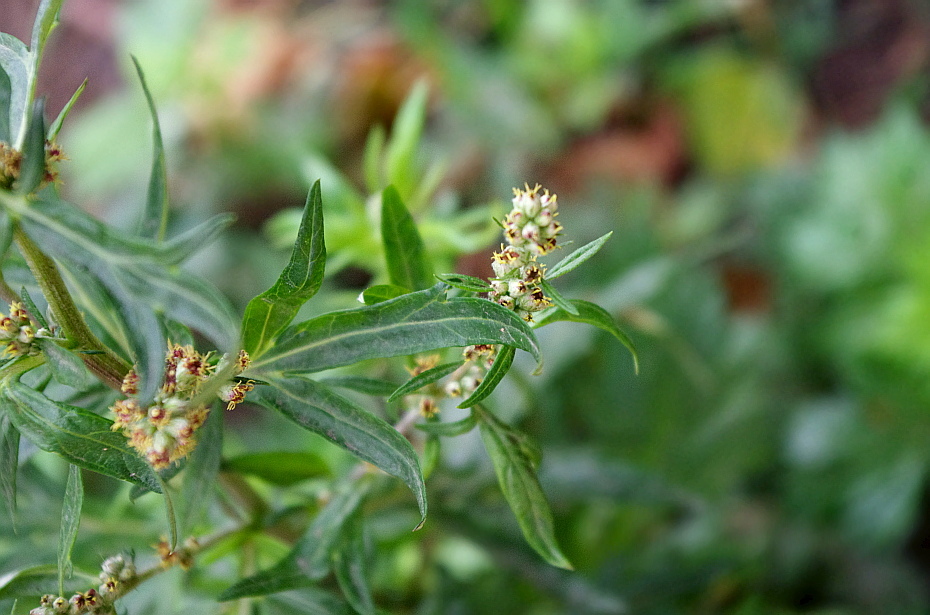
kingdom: Plantae
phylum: Tracheophyta
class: Magnoliopsida
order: Asterales
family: Asteraceae
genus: Artemisia
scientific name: Artemisia vulgaris
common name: Mugwort
